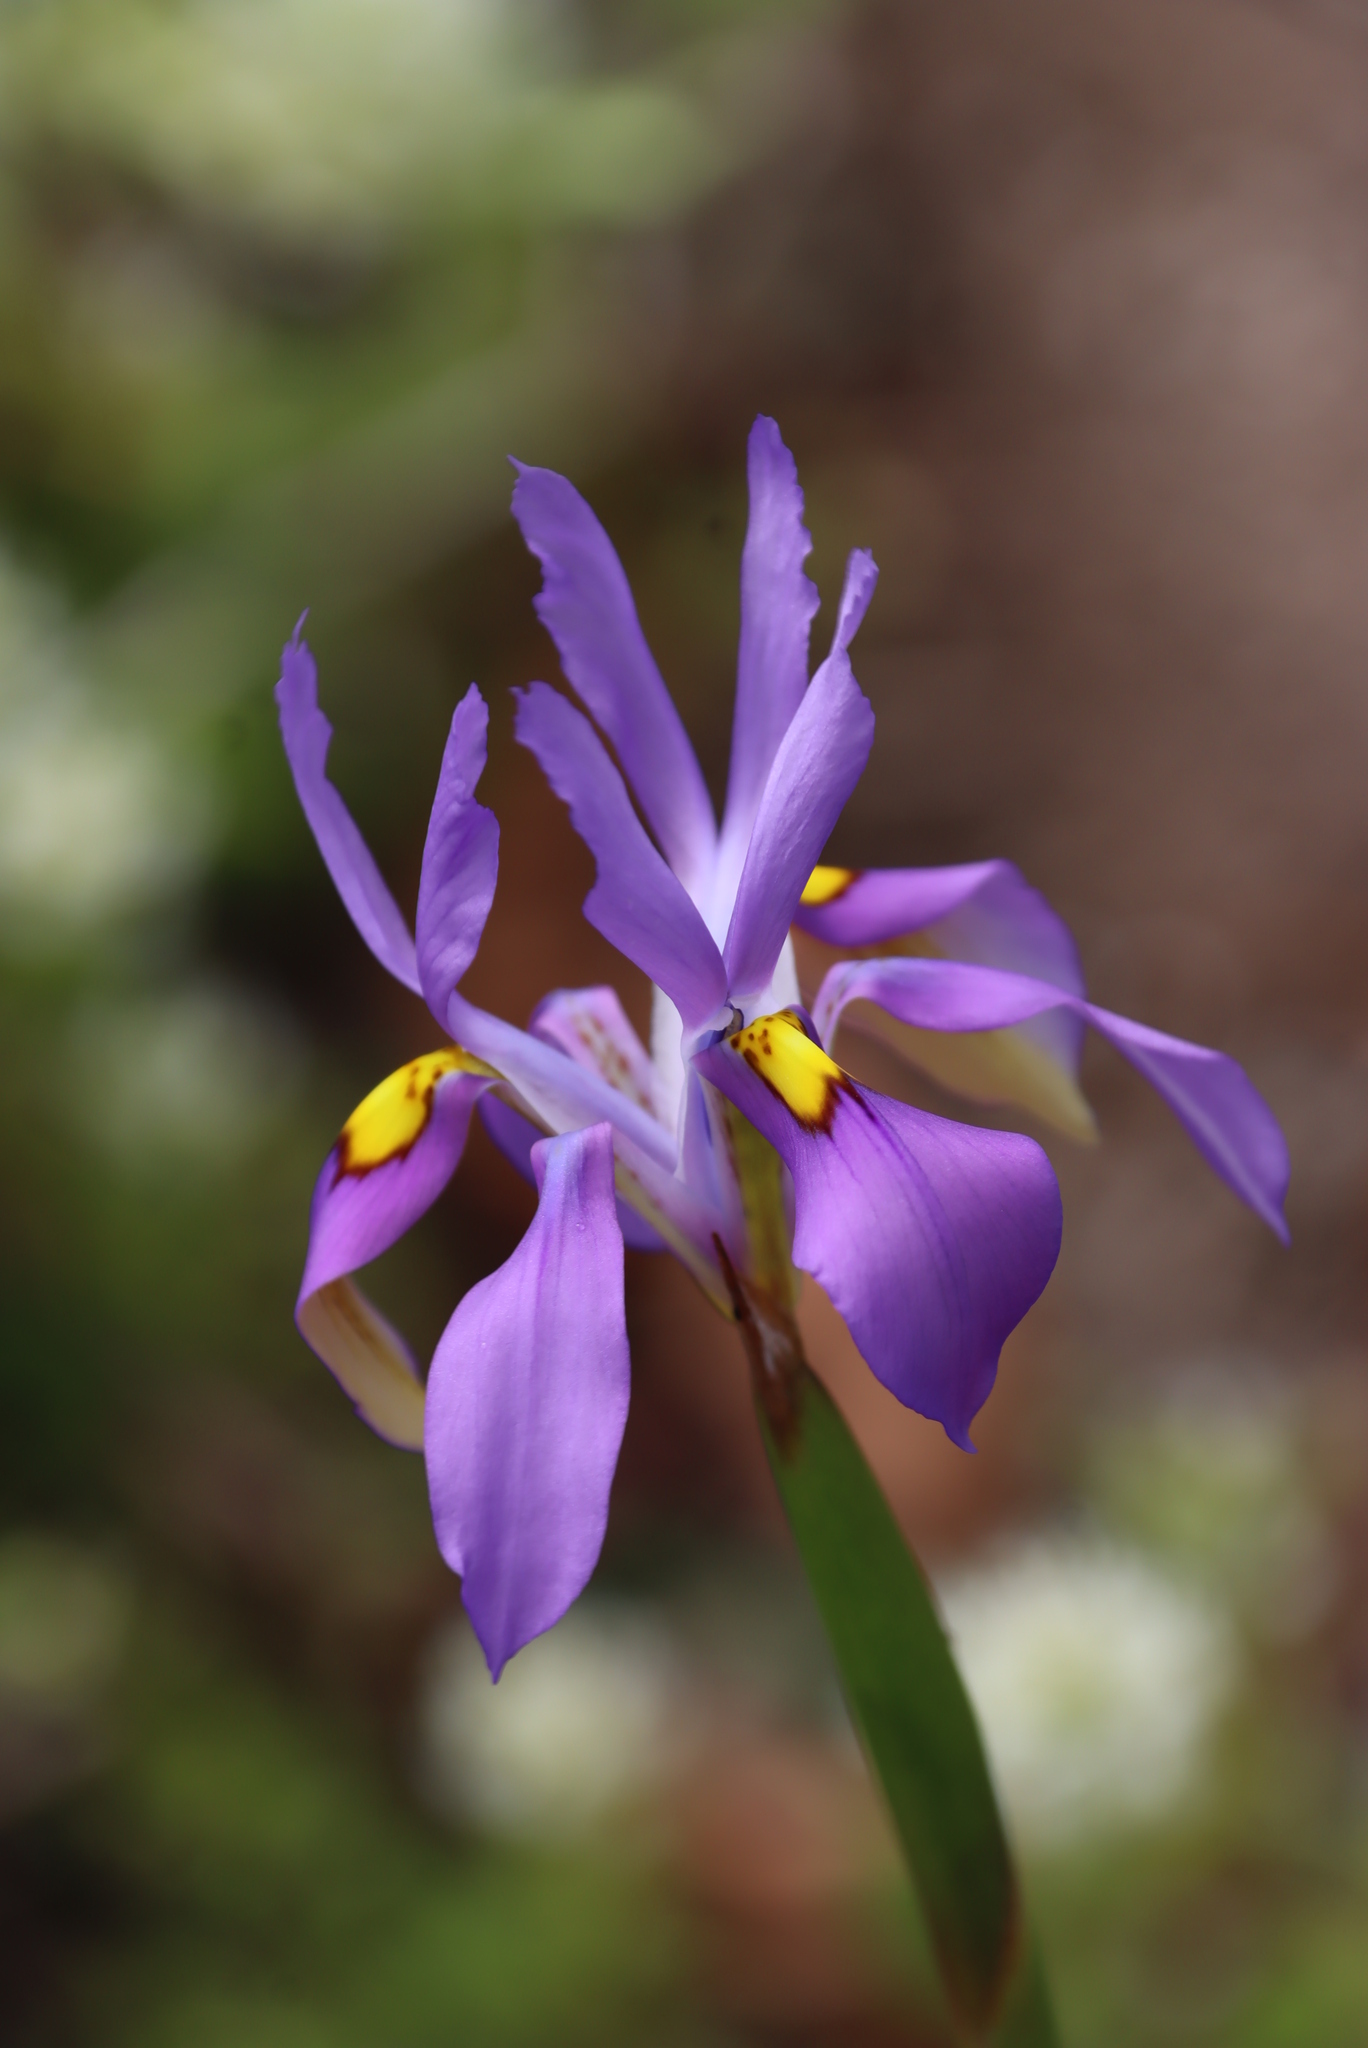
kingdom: Plantae
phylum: Tracheophyta
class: Liliopsida
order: Asparagales
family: Iridaceae
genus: Moraea
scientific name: Moraea fugax
